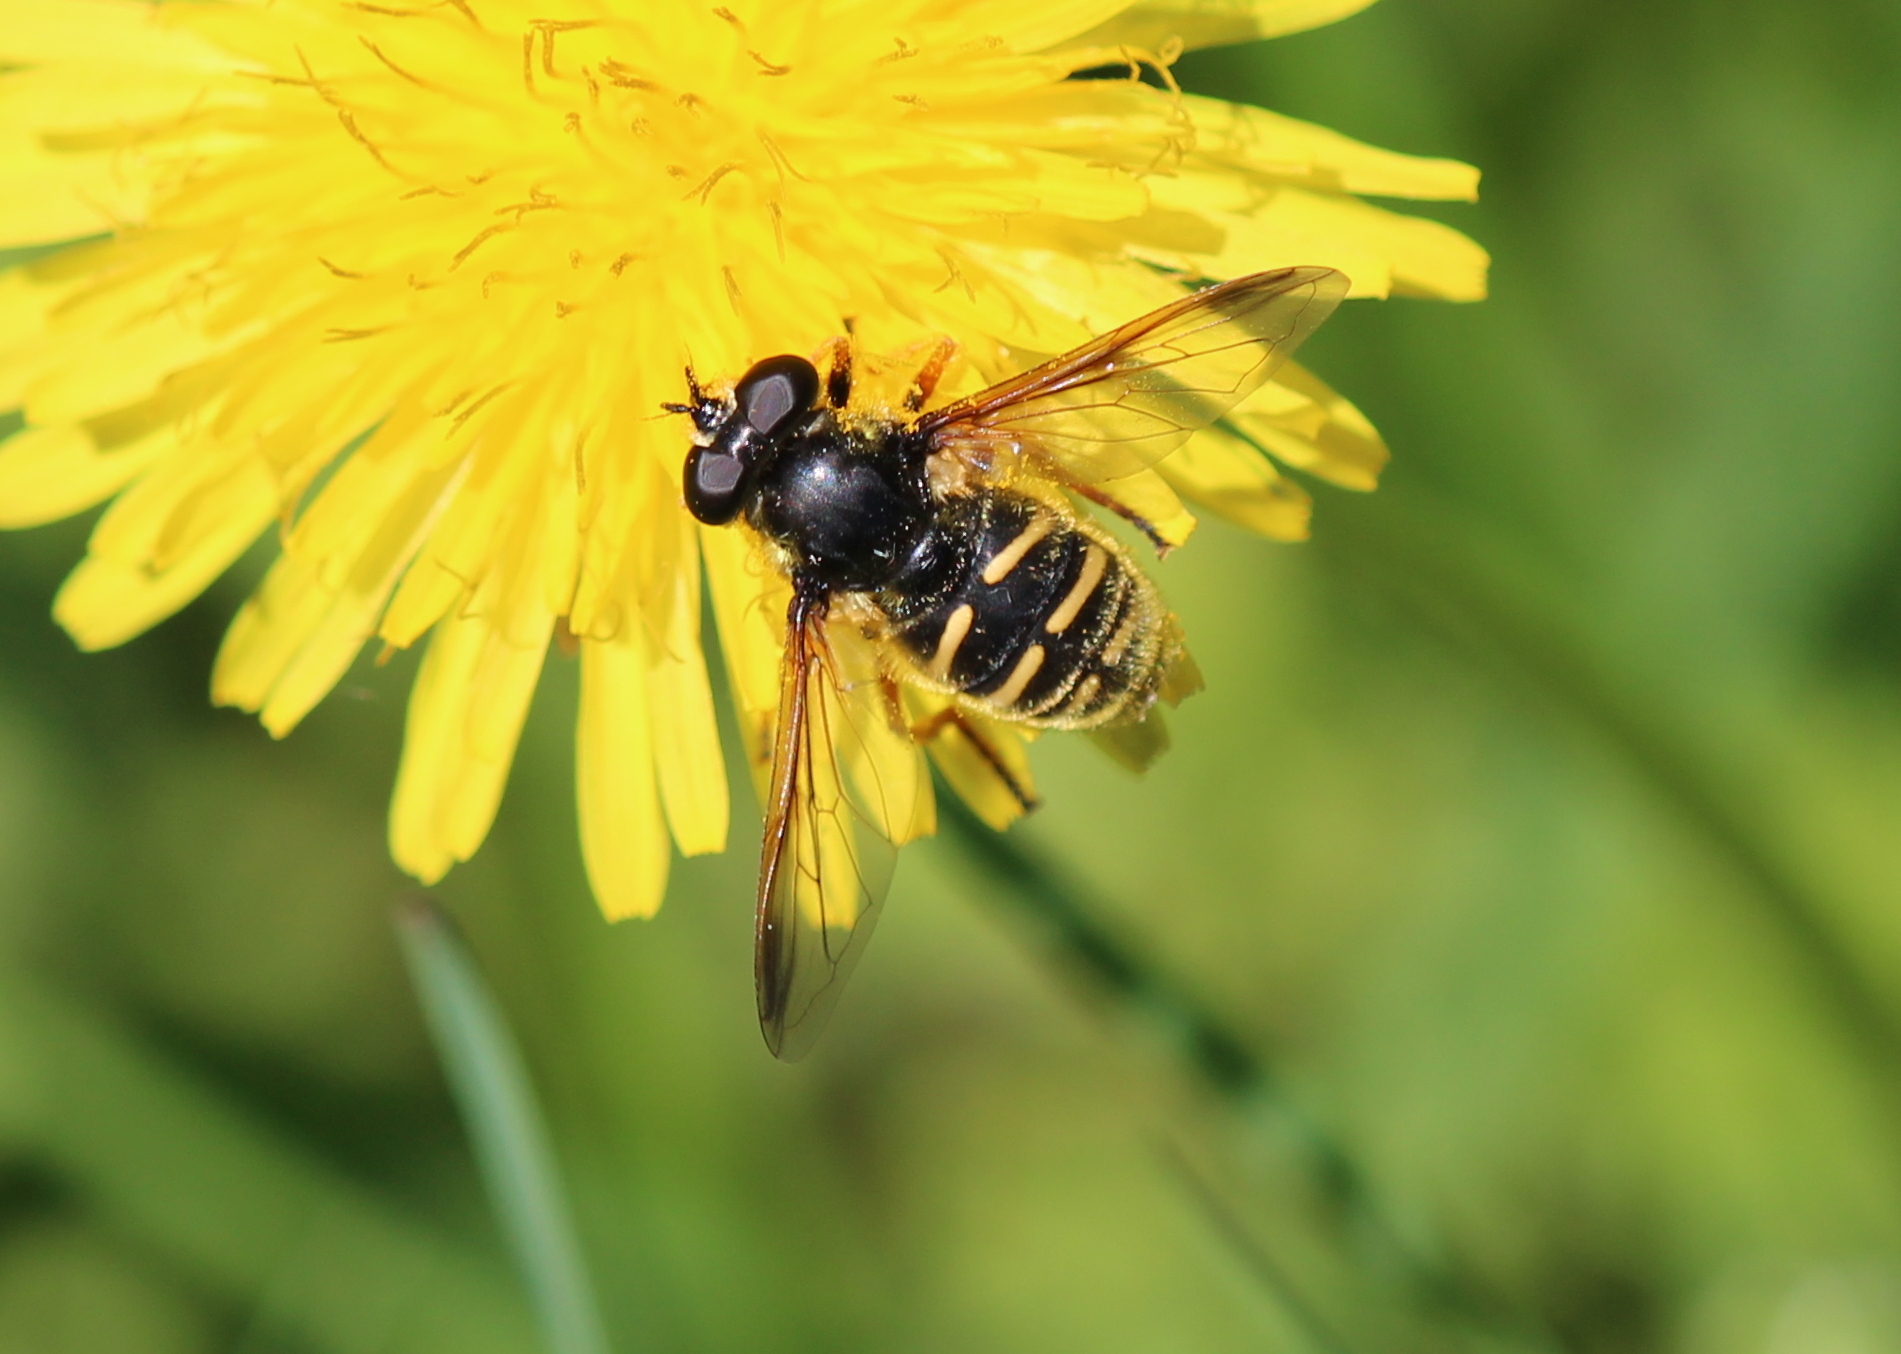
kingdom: Animalia
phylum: Arthropoda
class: Insecta
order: Diptera
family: Syrphidae
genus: Sericomyia
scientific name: Sericomyia chrysotoxoides
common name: Oblique-banded pond fly
